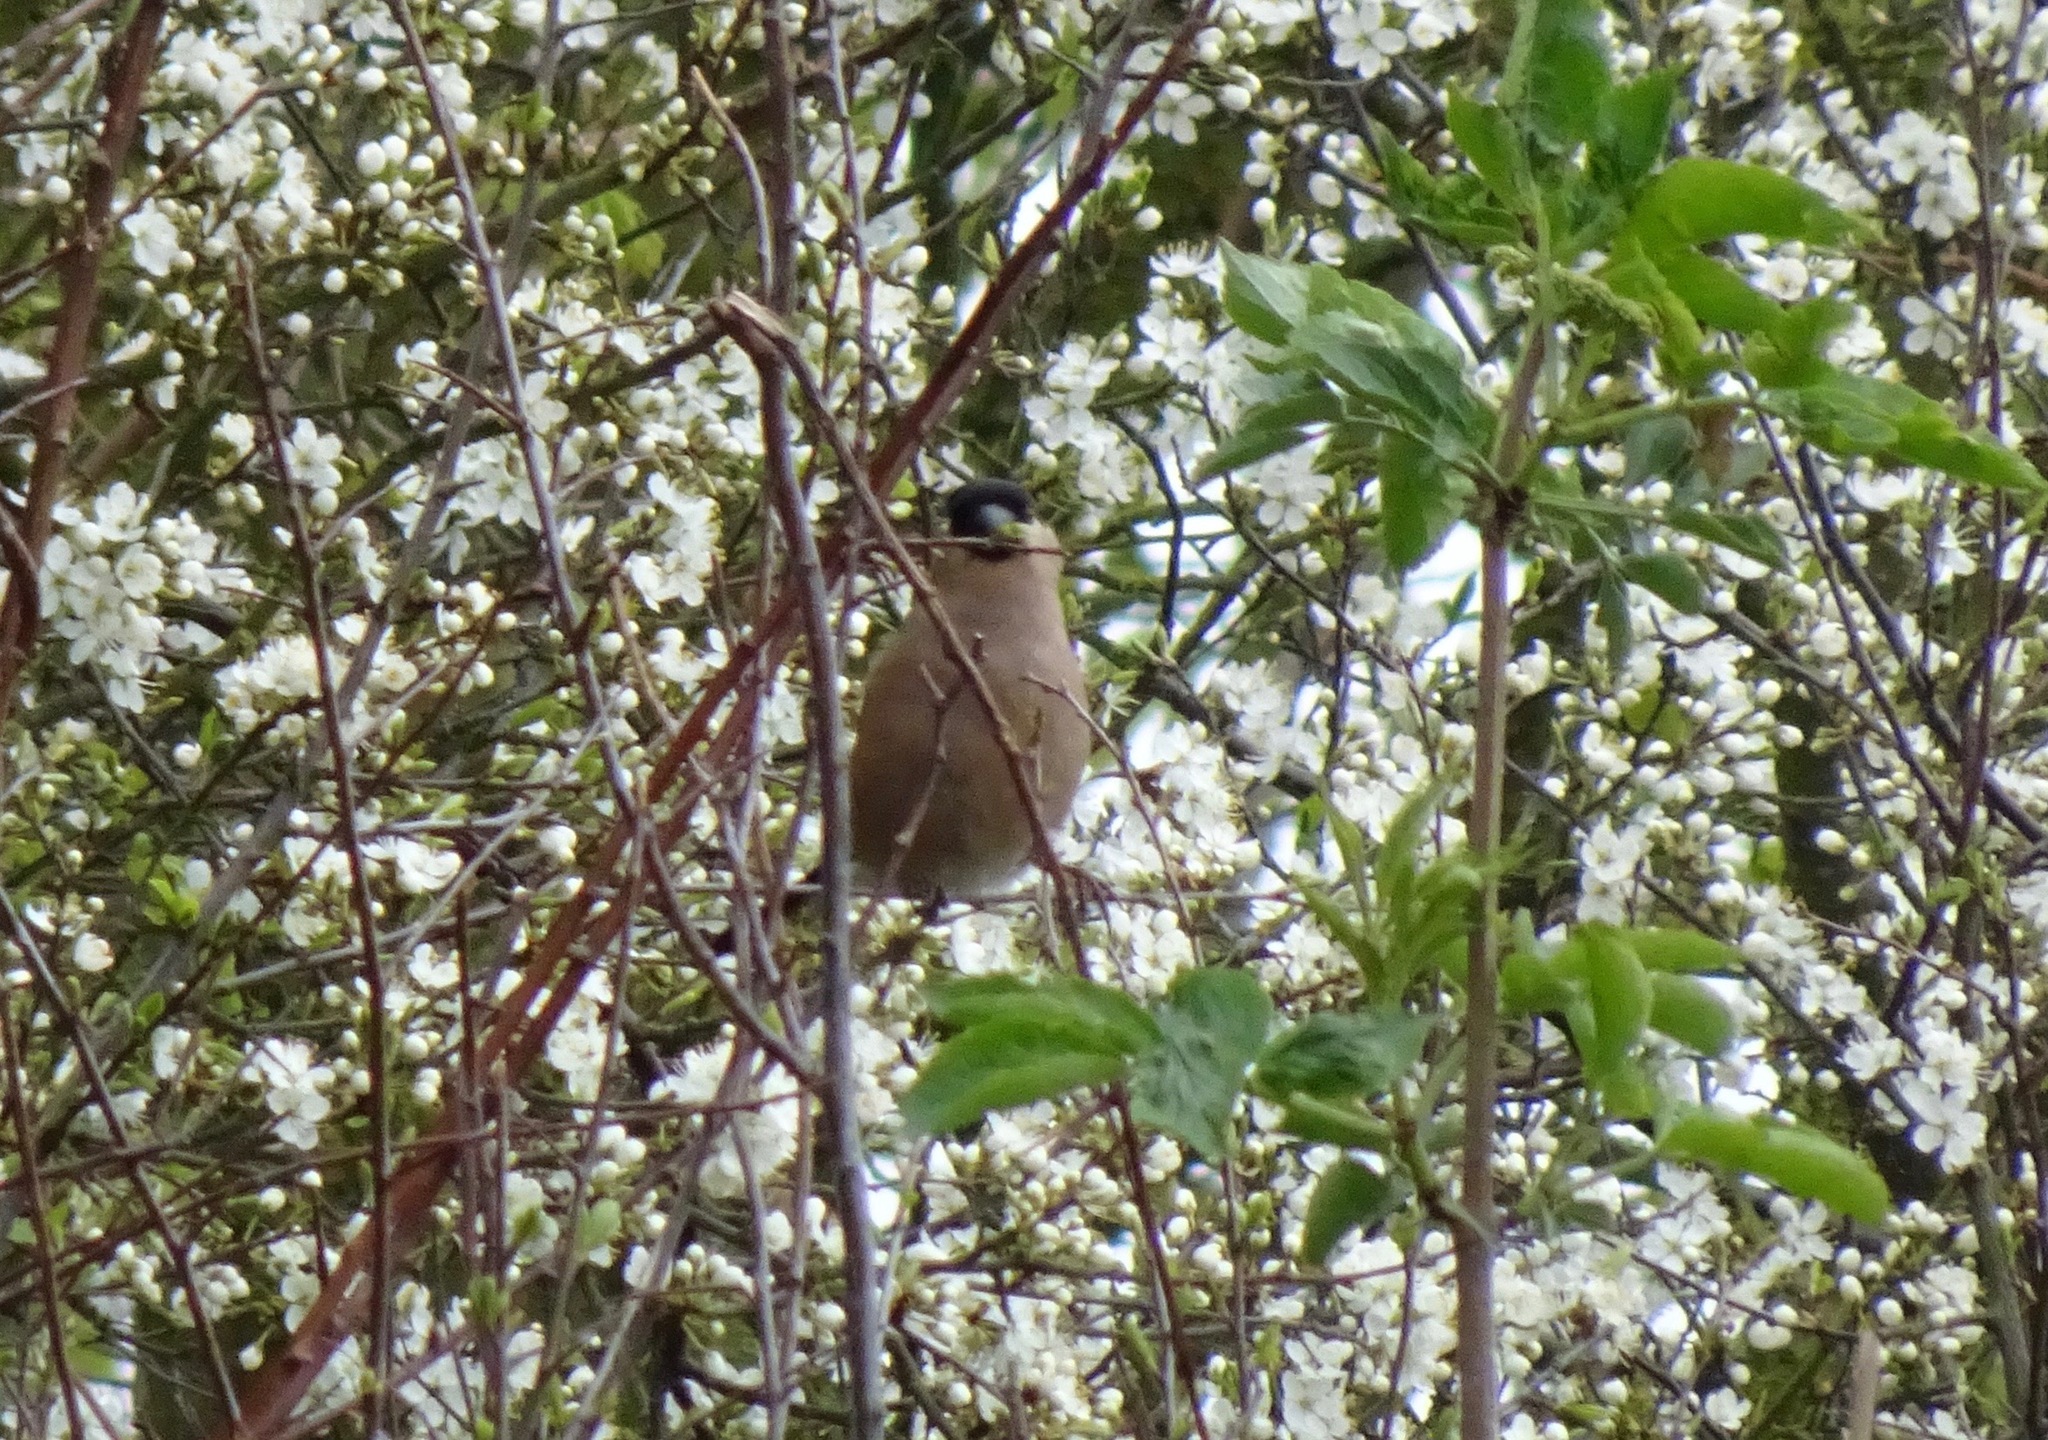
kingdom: Animalia
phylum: Chordata
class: Aves
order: Passeriformes
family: Fringillidae
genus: Pyrrhula
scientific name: Pyrrhula pyrrhula
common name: Eurasian bullfinch
